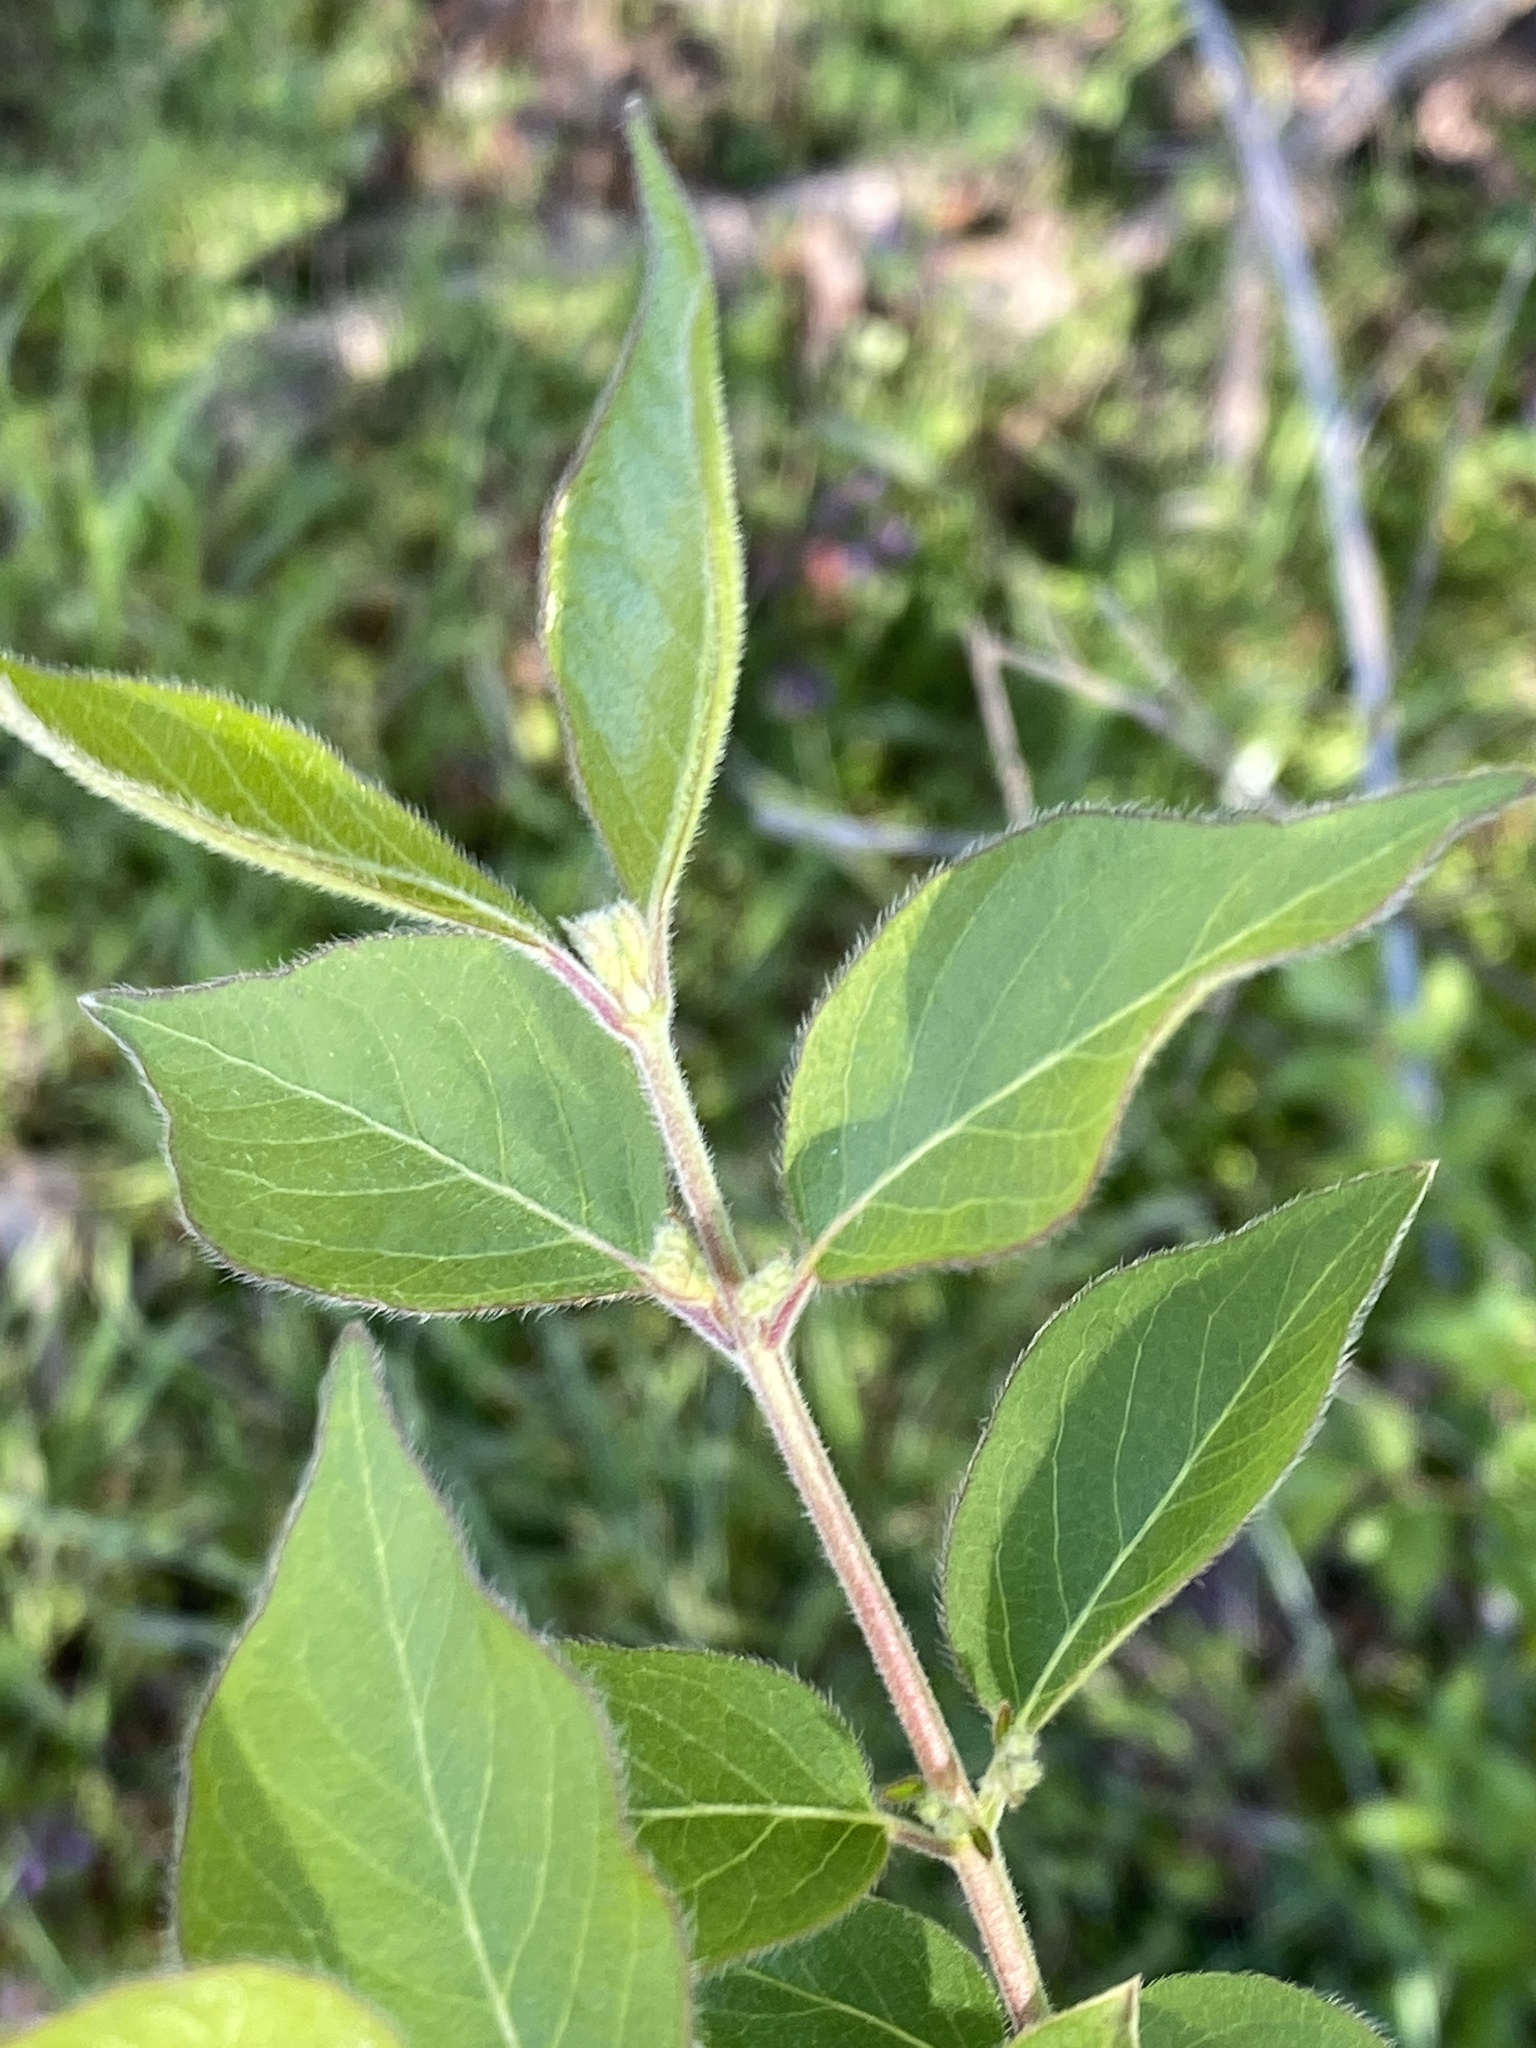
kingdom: Plantae
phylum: Tracheophyta
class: Magnoliopsida
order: Dipsacales
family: Caprifoliaceae
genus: Lonicera
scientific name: Lonicera maackii
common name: Amur honeysuckle
